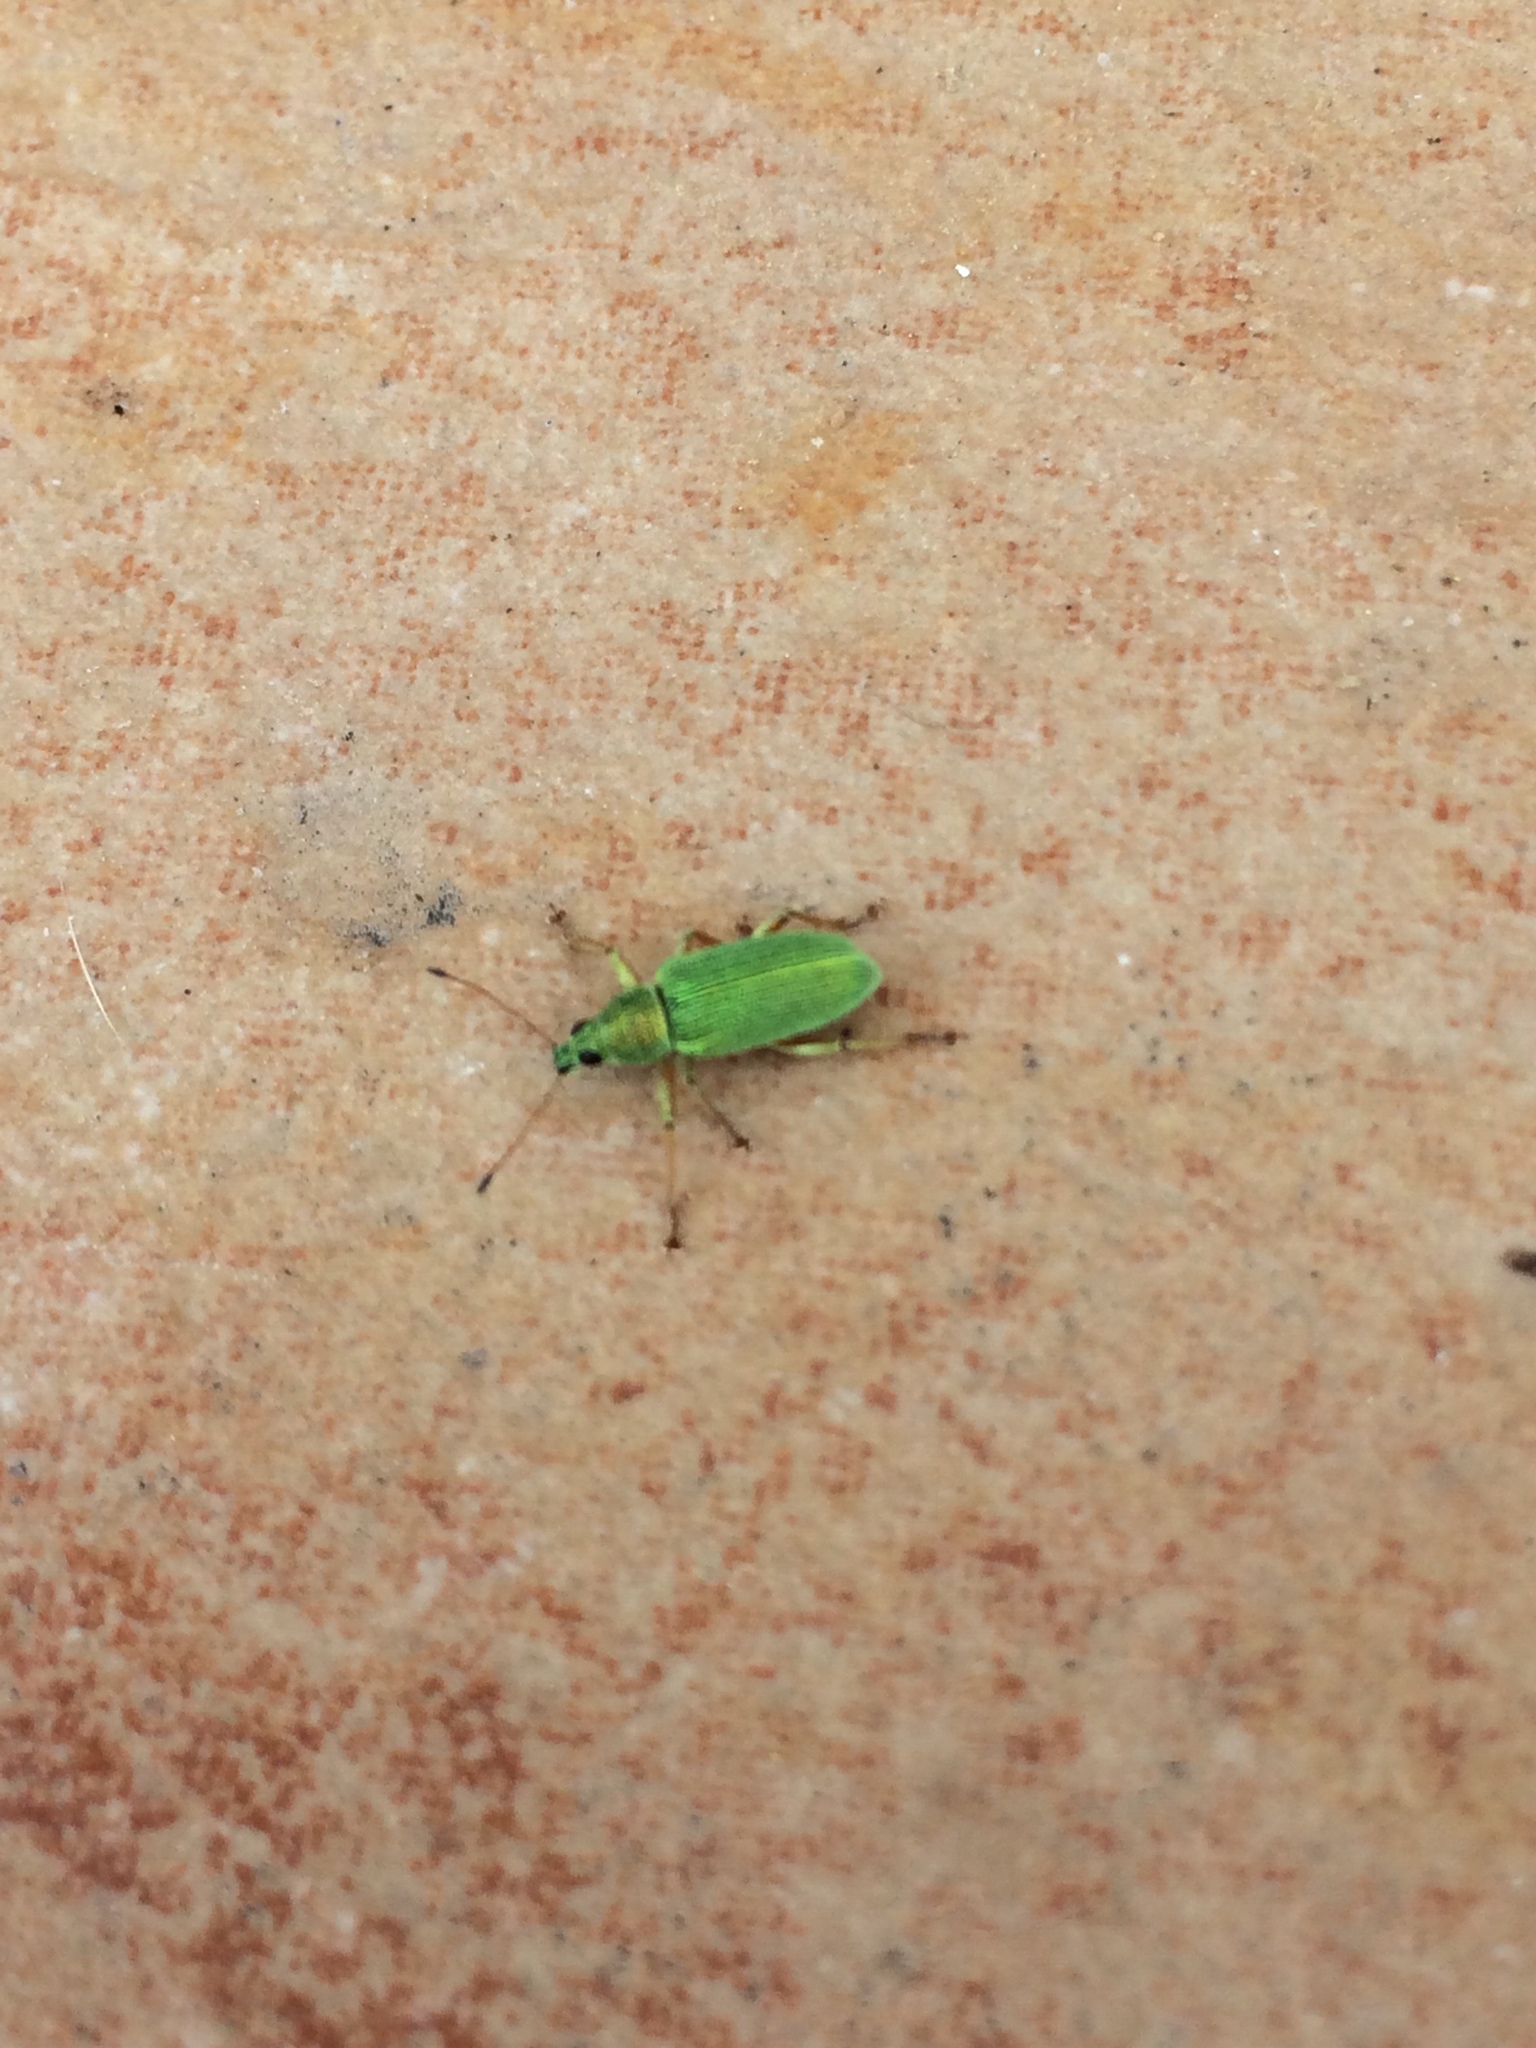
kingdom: Animalia
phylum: Arthropoda
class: Insecta
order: Coleoptera
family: Curculionidae
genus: Polydrusus
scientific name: Polydrusus formosus
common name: Weevil
